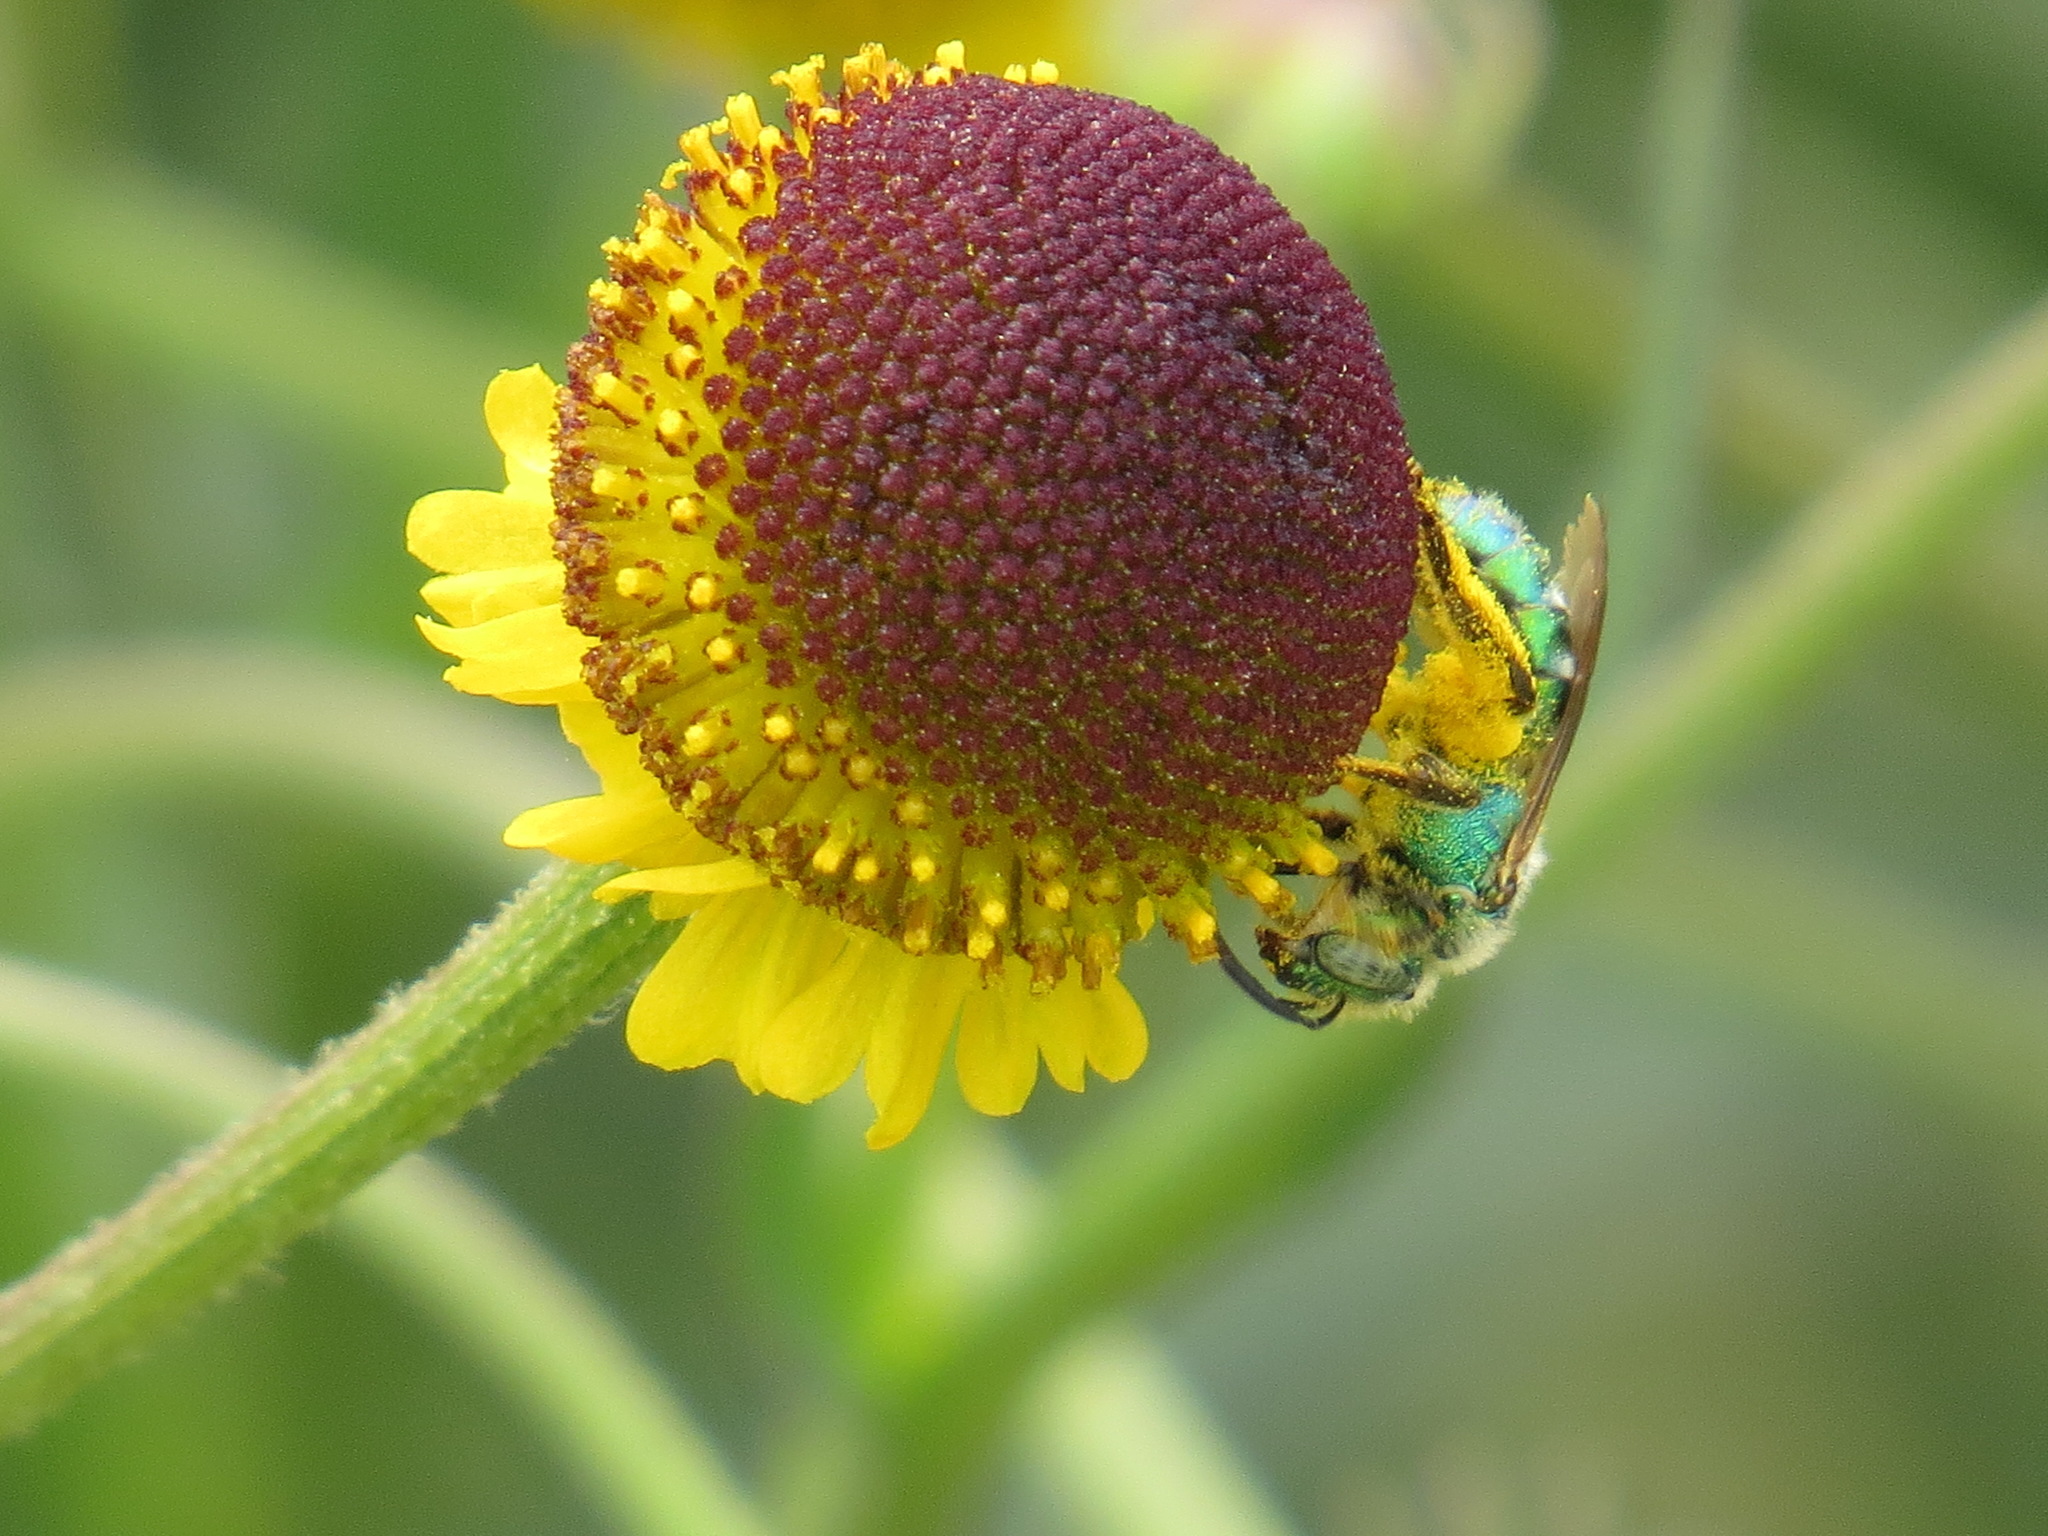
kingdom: Plantae
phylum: Tracheophyta
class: Magnoliopsida
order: Asterales
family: Asteraceae
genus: Helenium
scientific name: Helenium puberulum
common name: Sneezewort
